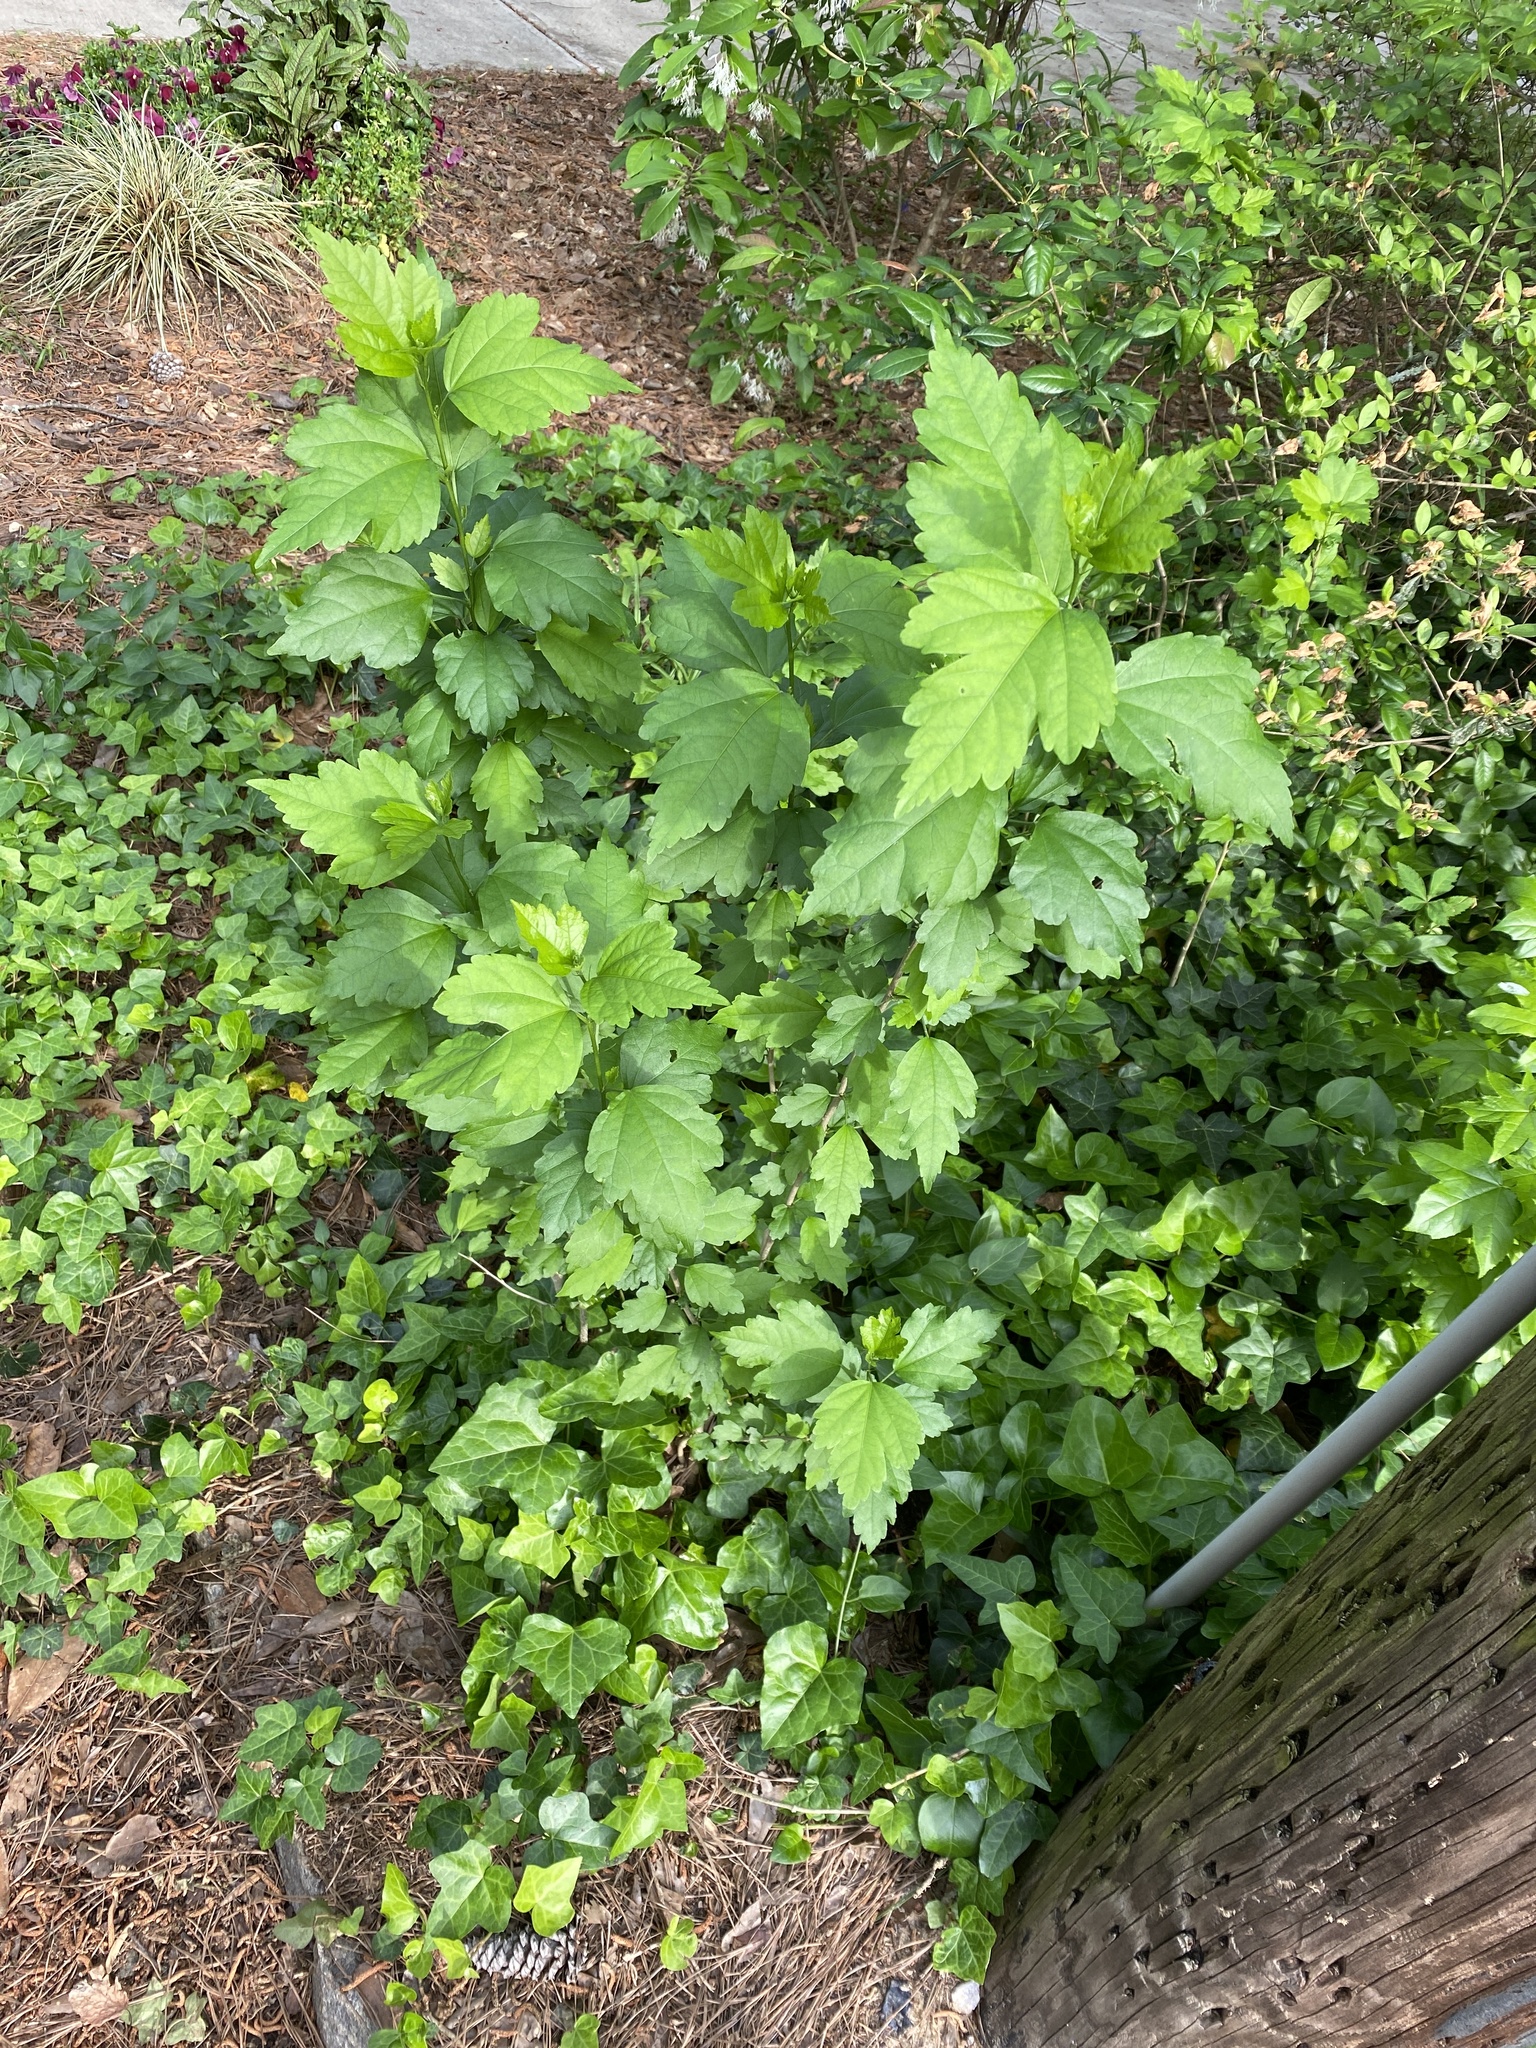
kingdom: Plantae
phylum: Tracheophyta
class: Magnoliopsida
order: Malvales
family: Malvaceae
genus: Hibiscus
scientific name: Hibiscus syriacus
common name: Syrian ketmia
